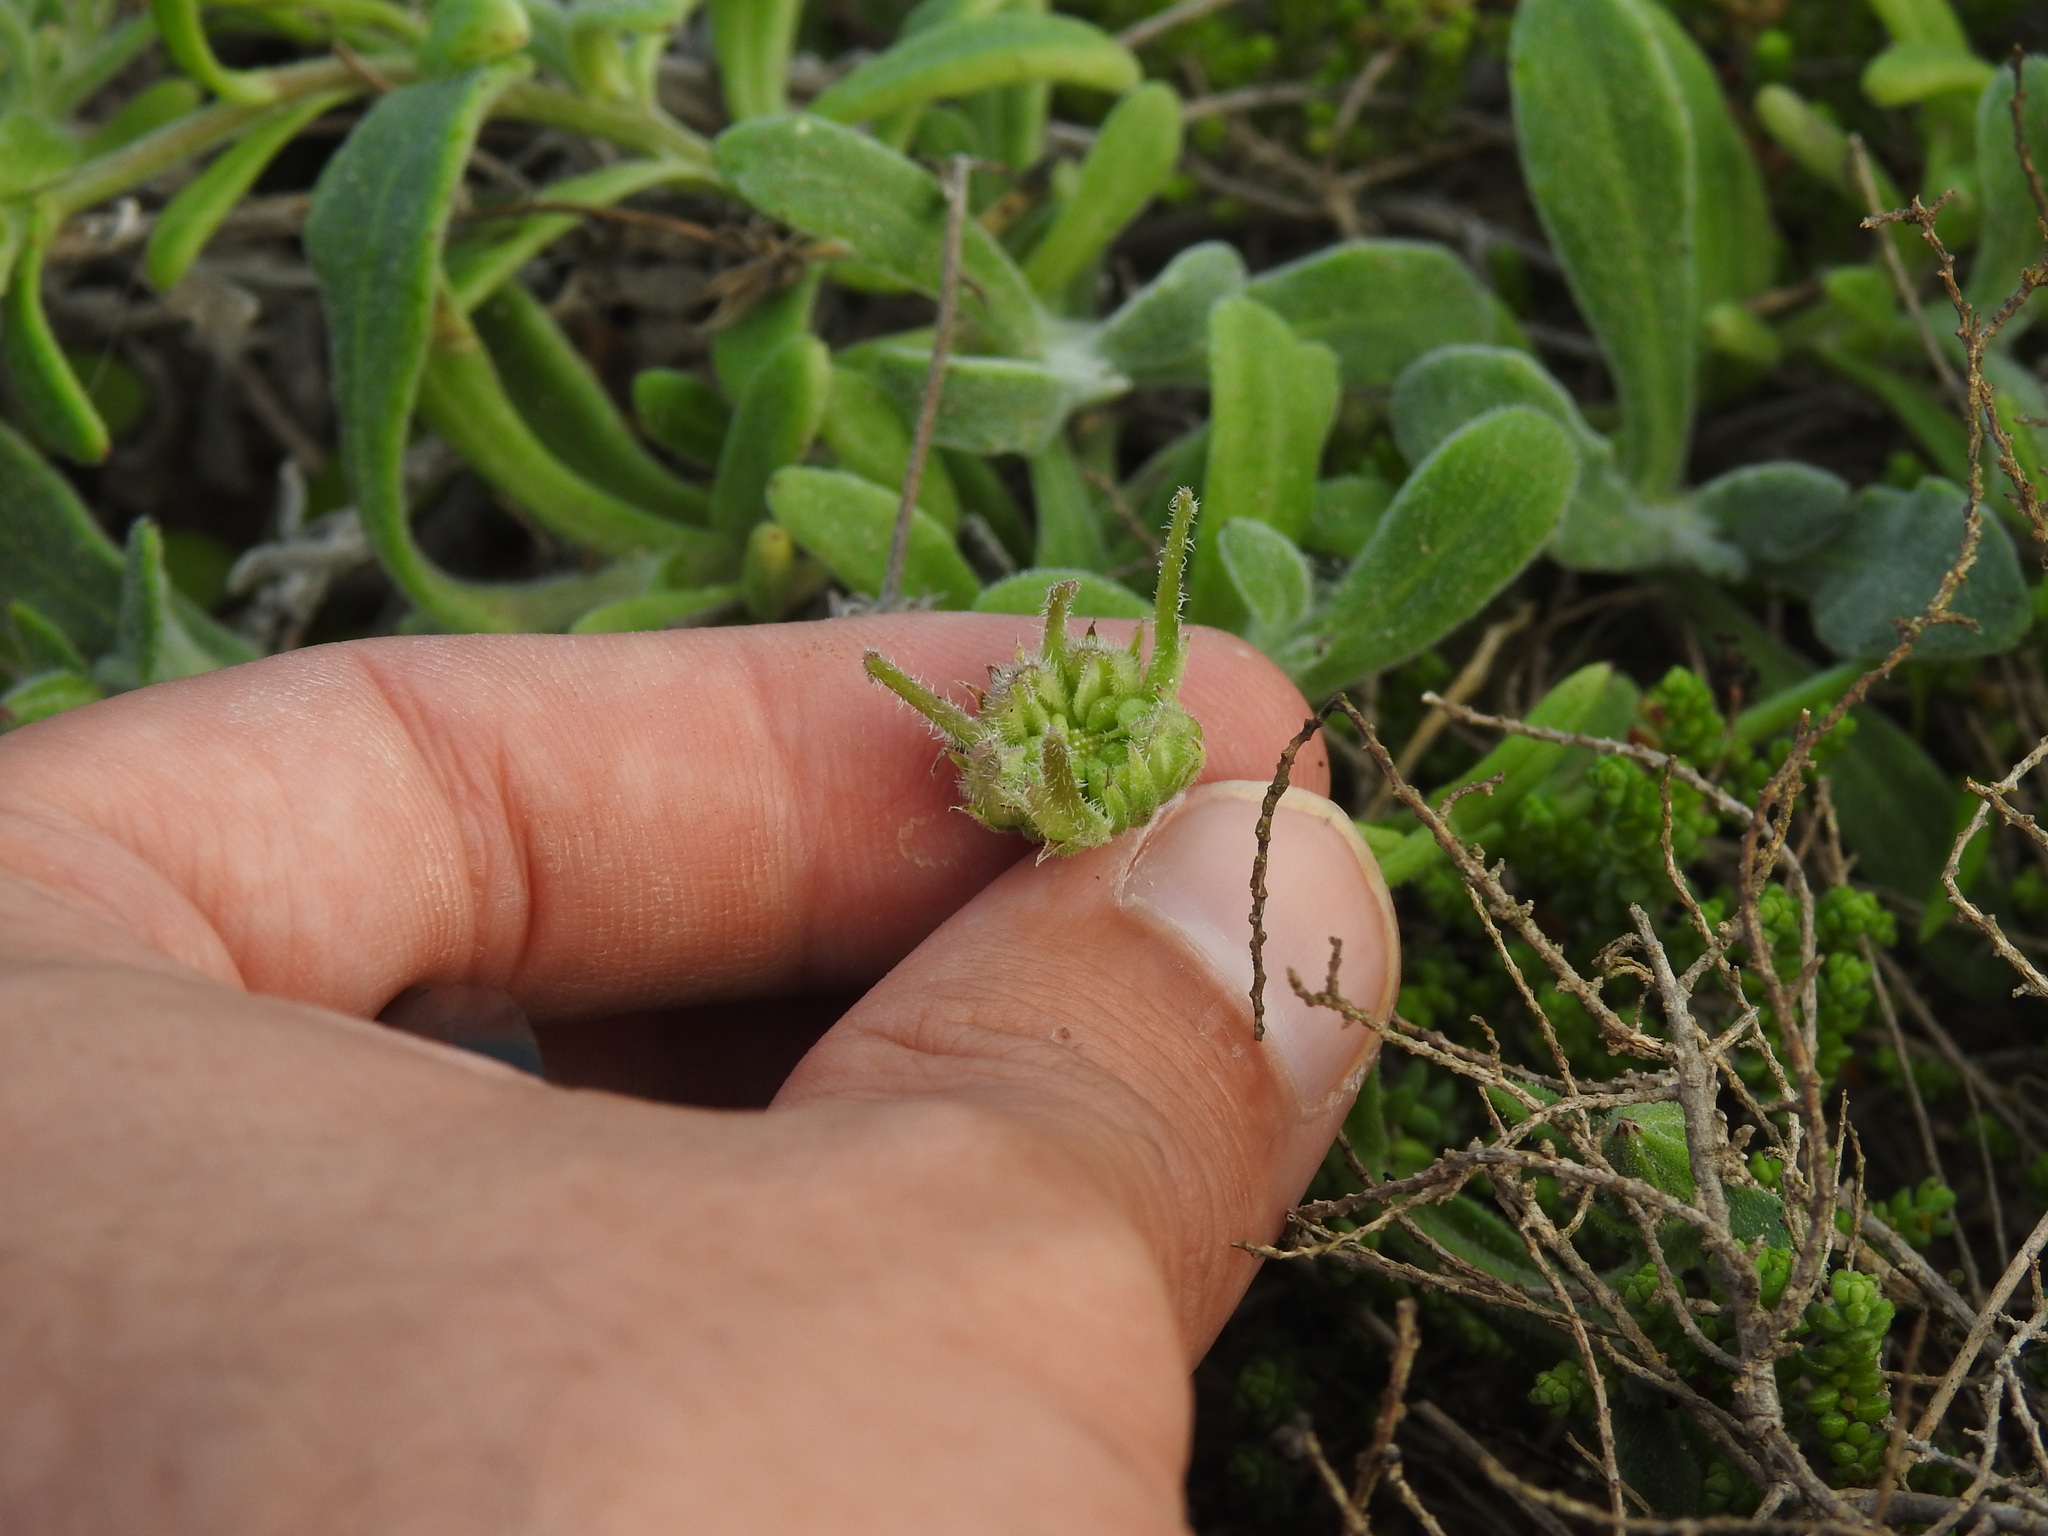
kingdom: Plantae
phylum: Tracheophyta
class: Magnoliopsida
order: Asterales
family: Asteraceae
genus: Calendula
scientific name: Calendula suffruticosa
